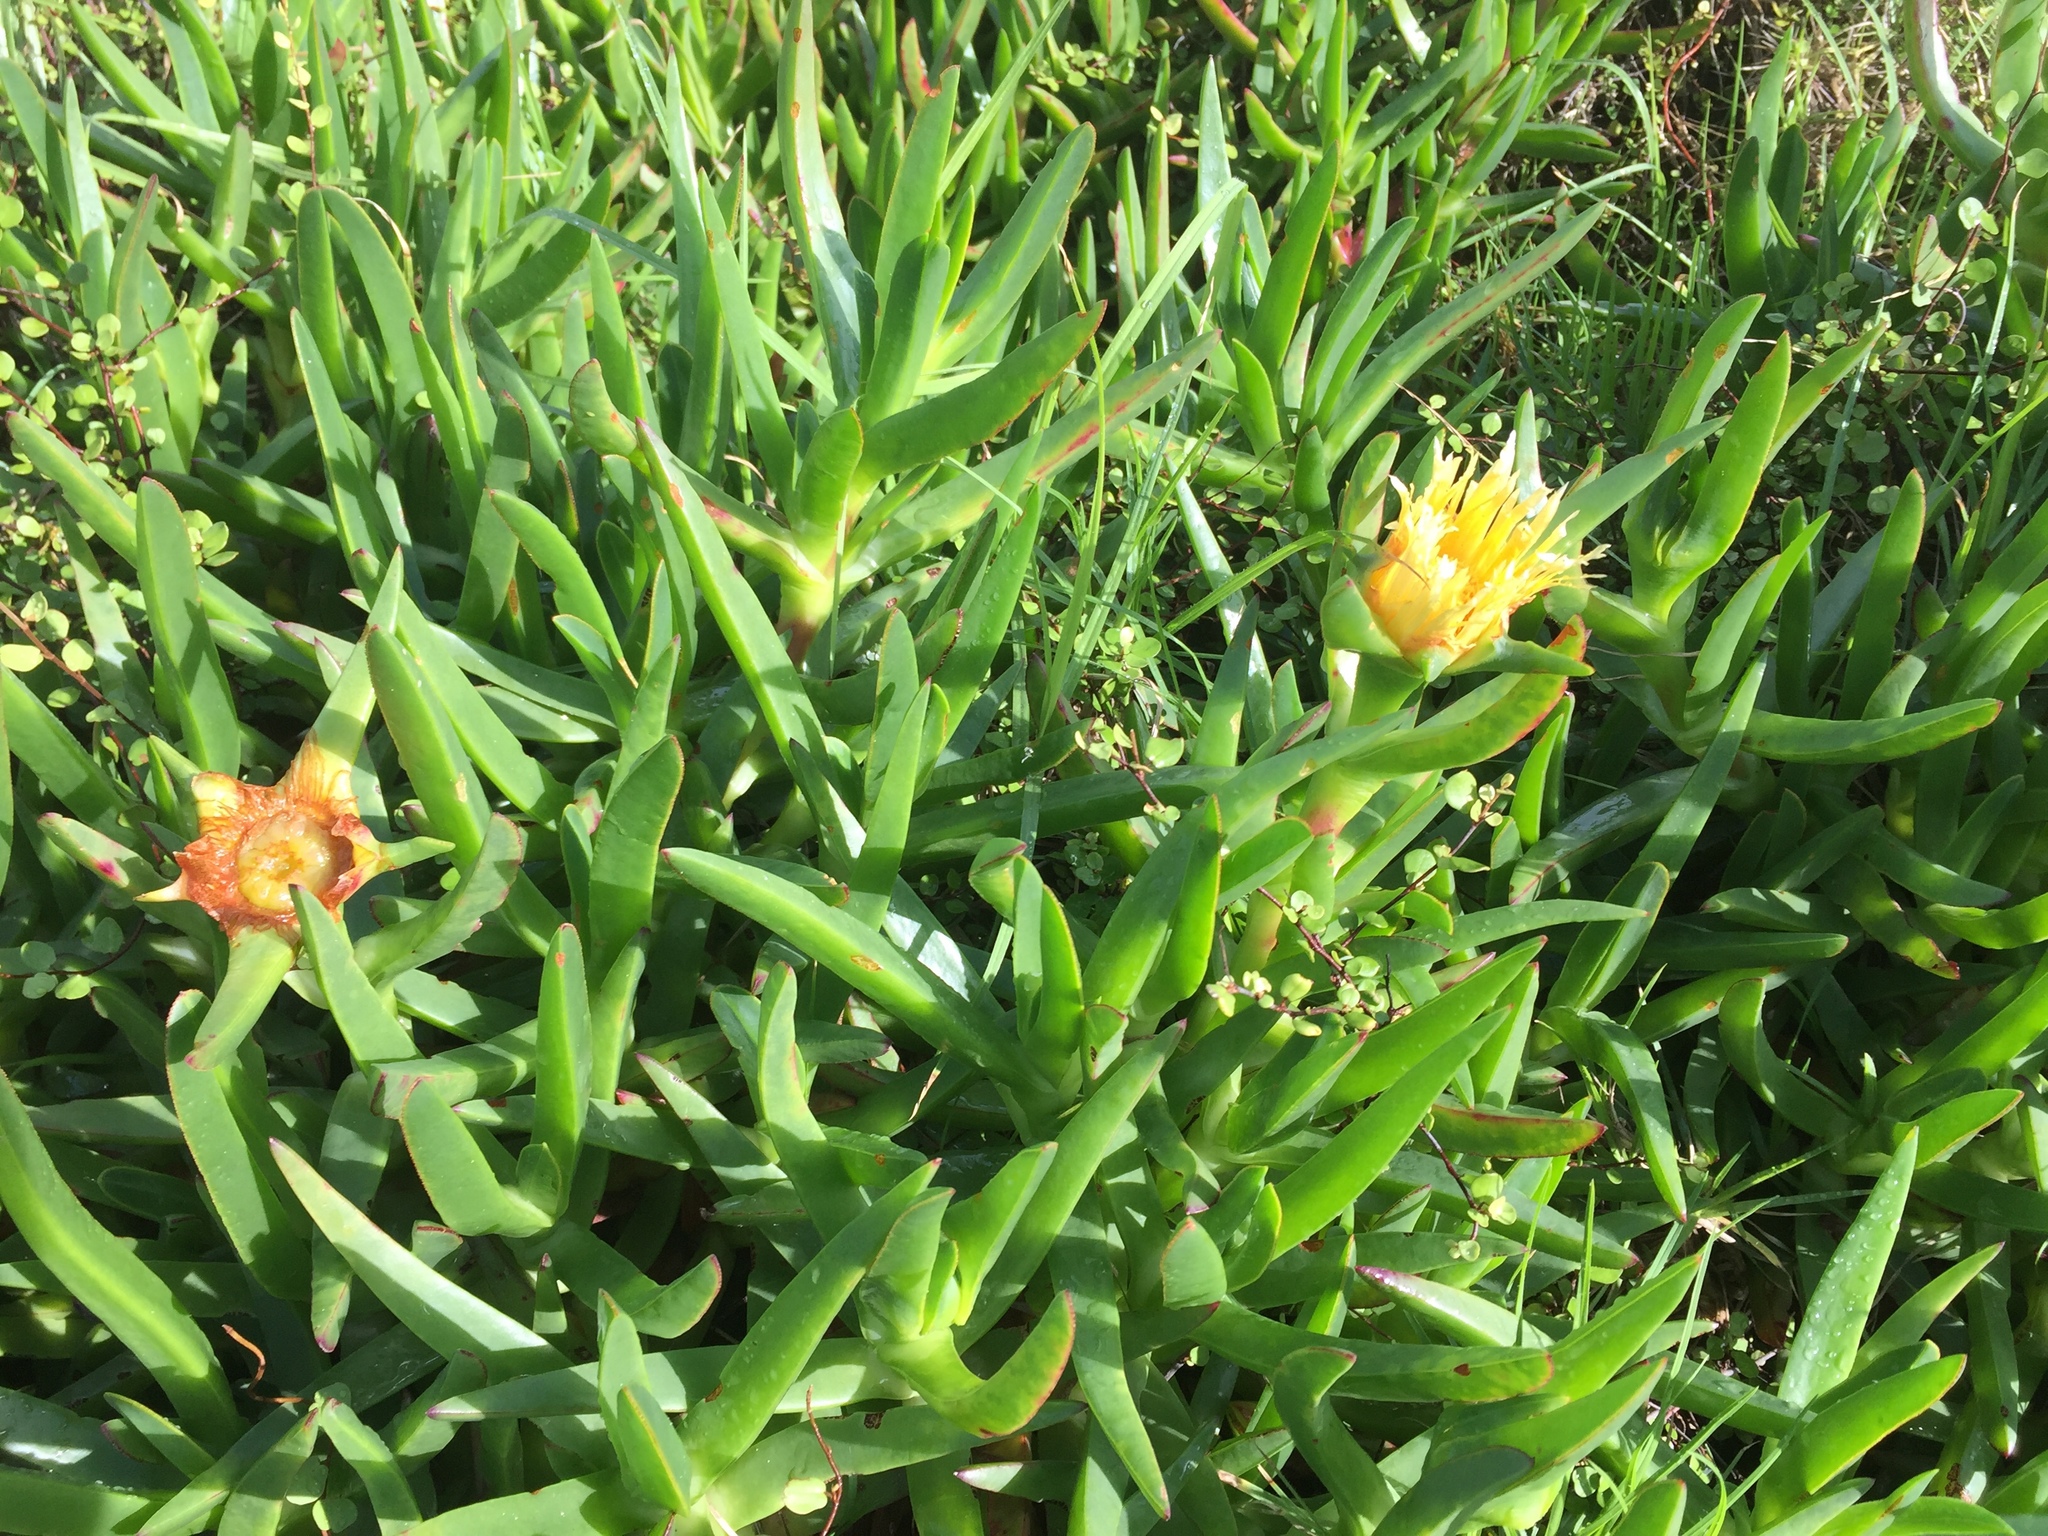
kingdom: Plantae
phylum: Tracheophyta
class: Magnoliopsida
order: Caryophyllales
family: Aizoaceae
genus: Carpobrotus
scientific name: Carpobrotus edulis
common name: Hottentot-fig
